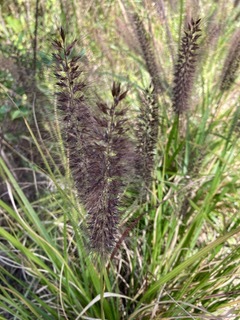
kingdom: Plantae
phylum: Tracheophyta
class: Liliopsida
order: Poales
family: Poaceae
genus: Cenchrus
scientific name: Cenchrus alopecuroides
